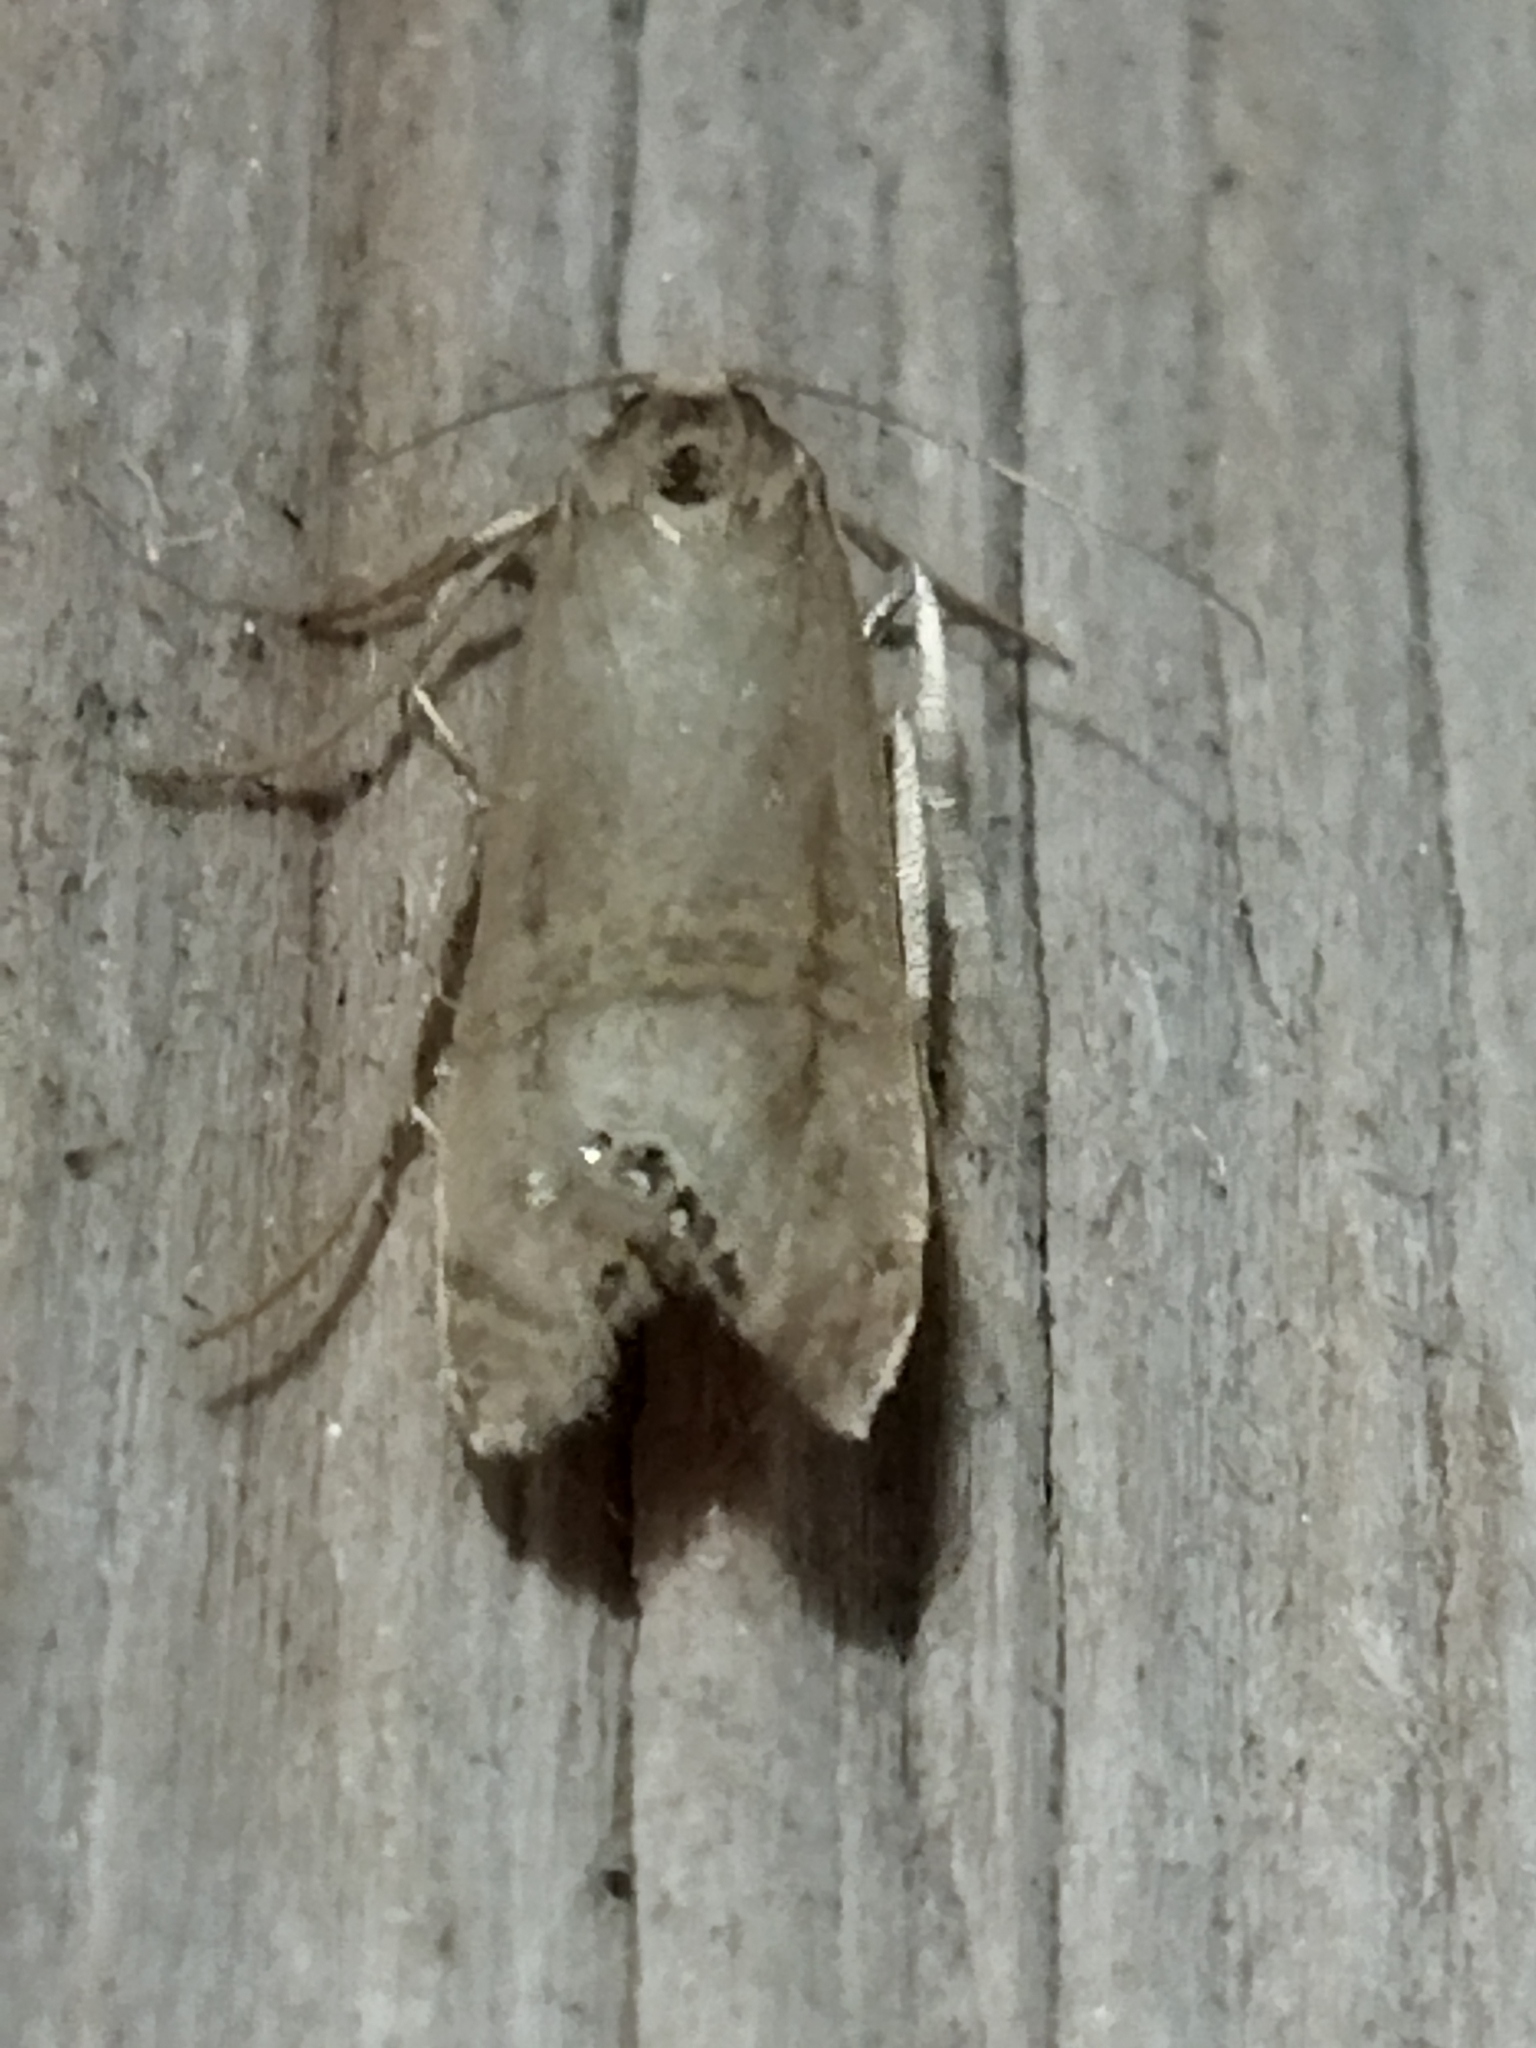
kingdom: Animalia
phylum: Arthropoda
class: Insecta
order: Lepidoptera
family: Crambidae
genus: Euchromius
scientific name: Euchromius ocellea
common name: Necklace veneer moth
